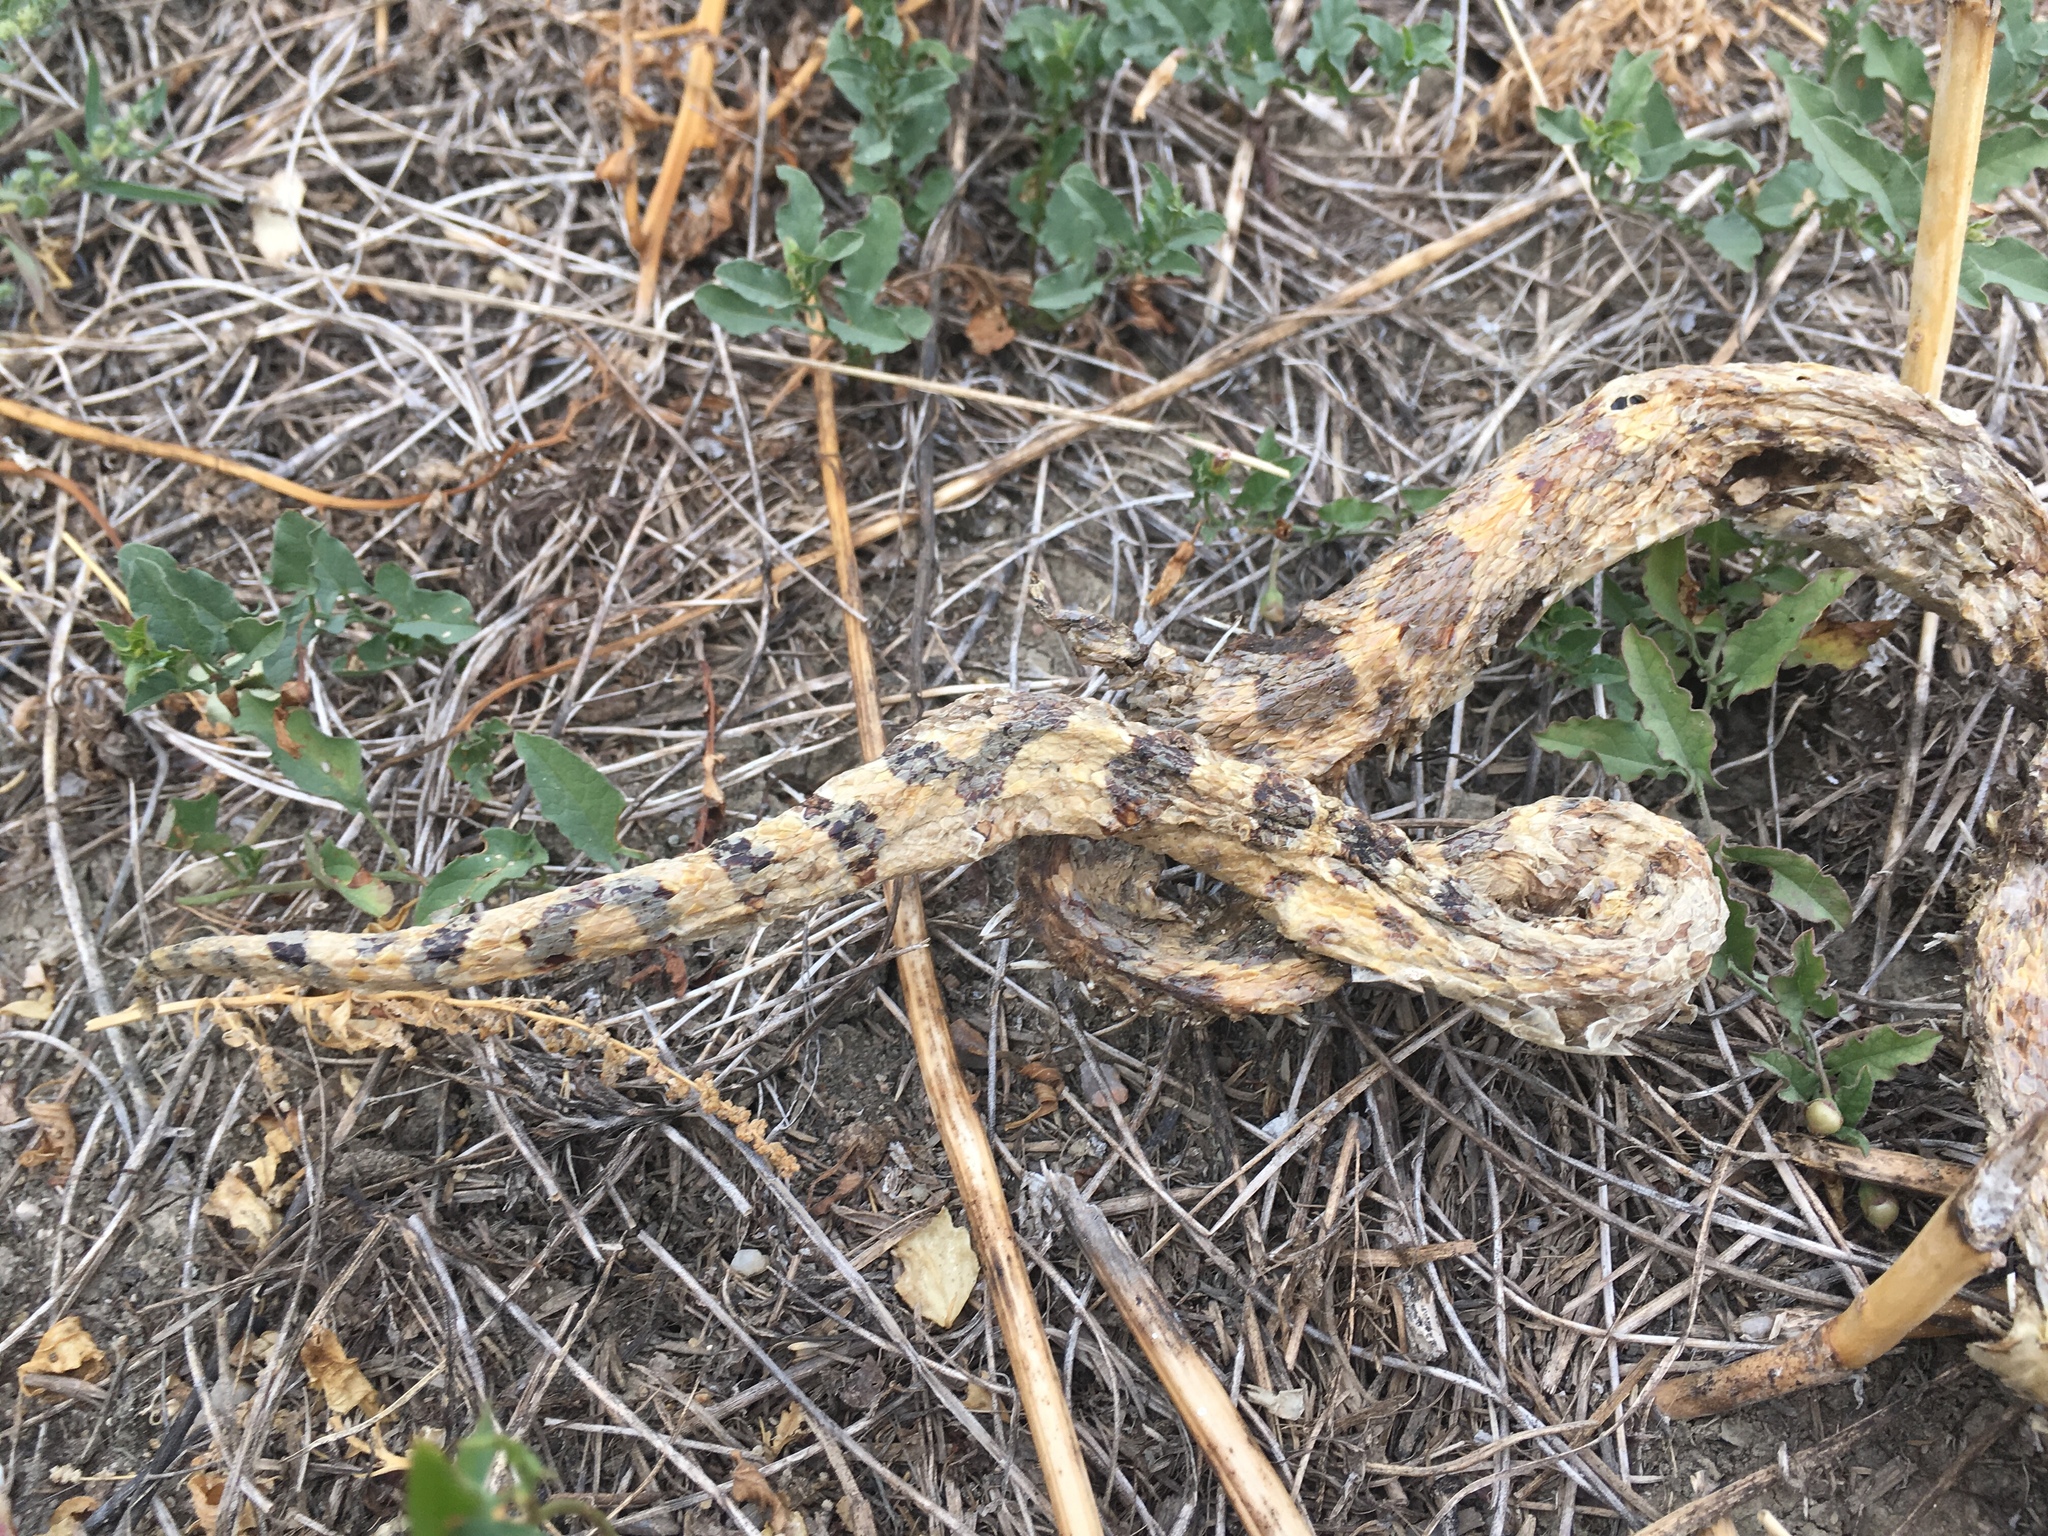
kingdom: Animalia
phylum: Chordata
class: Squamata
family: Colubridae
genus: Pituophis
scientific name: Pituophis catenifer
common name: Gopher snake
